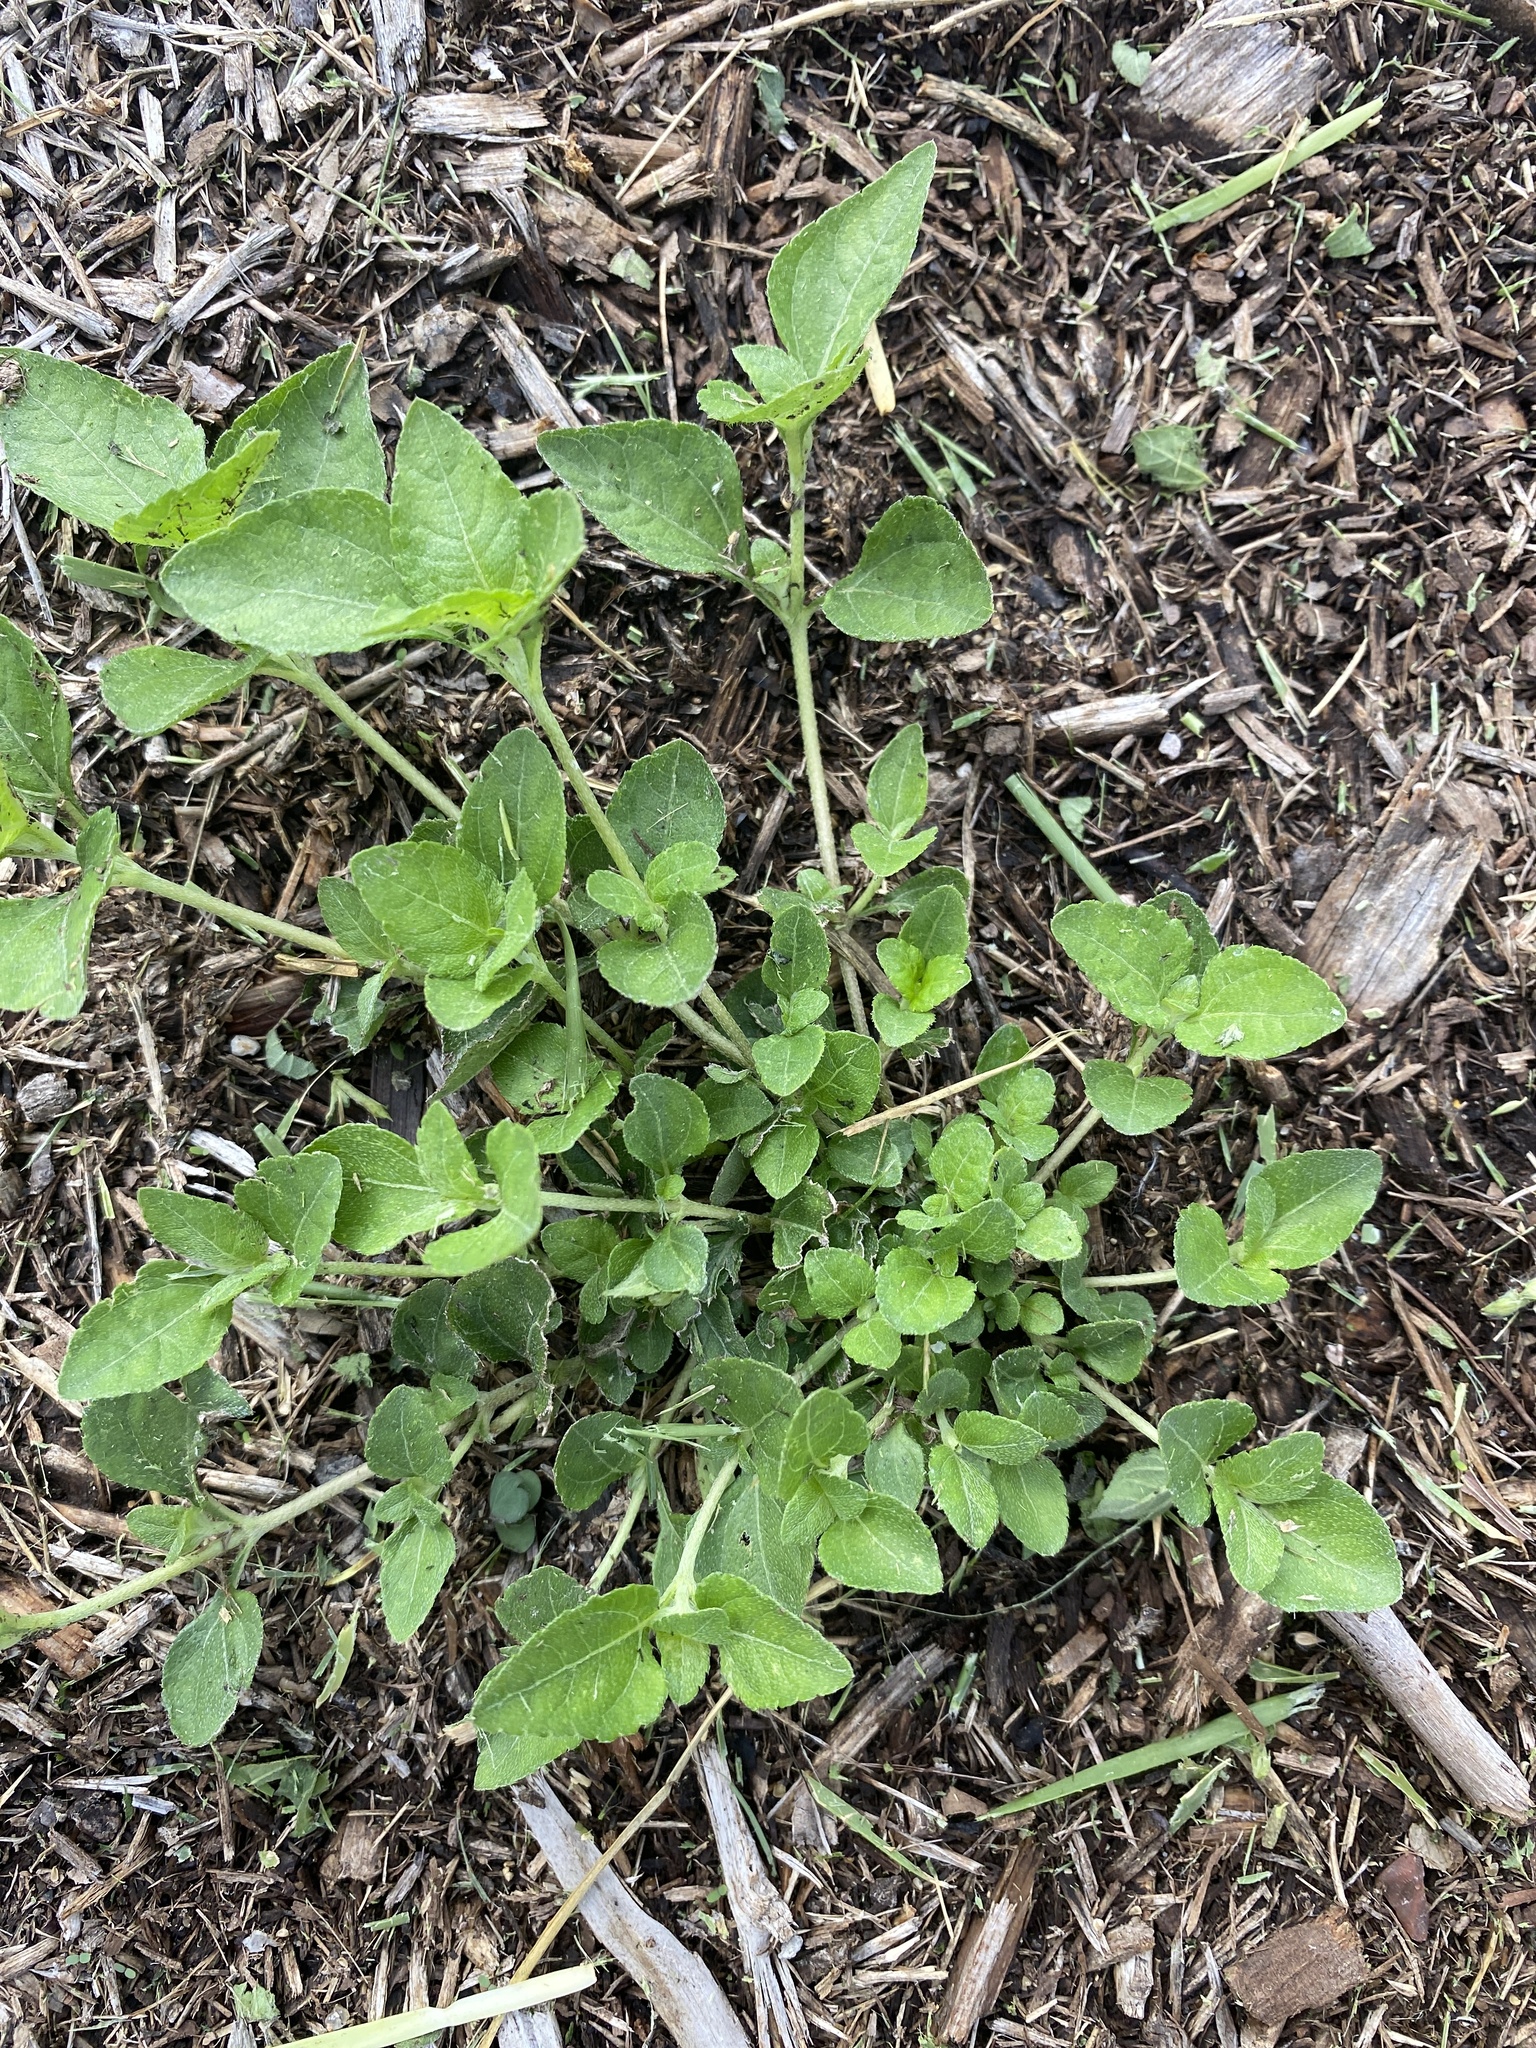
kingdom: Plantae
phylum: Tracheophyta
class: Magnoliopsida
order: Asterales
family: Asteraceae
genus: Calyptocarpus
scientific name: Calyptocarpus vialis
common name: Straggler daisy
